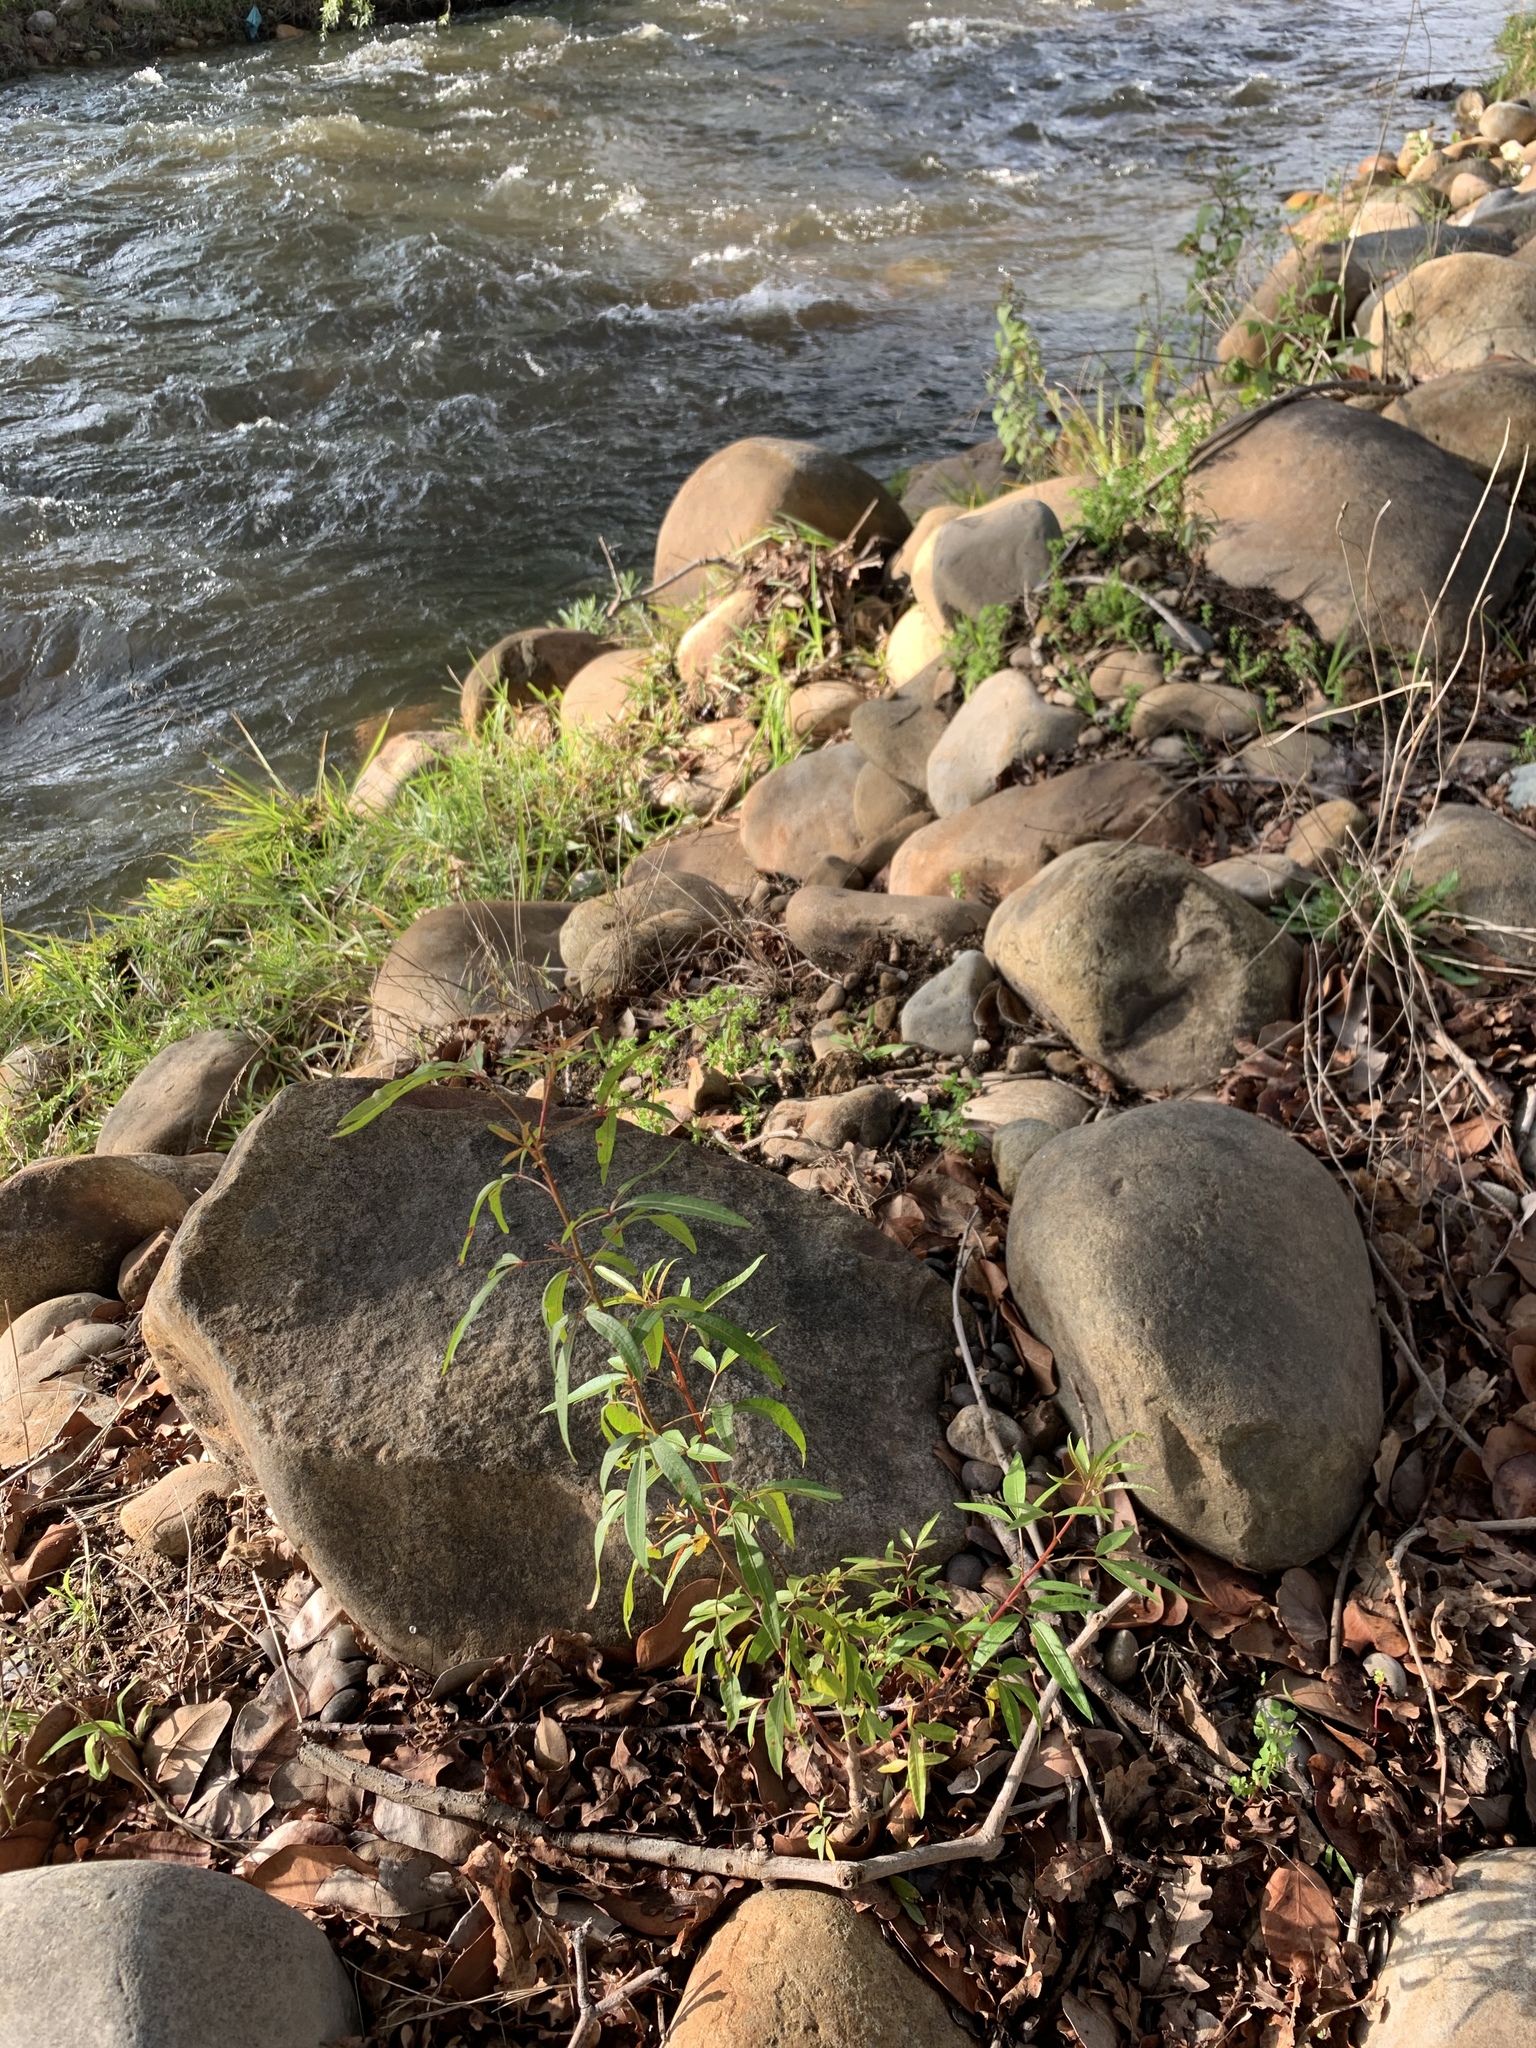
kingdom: Plantae
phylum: Tracheophyta
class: Magnoliopsida
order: Sapindales
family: Anacardiaceae
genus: Searsia
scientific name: Searsia pendulina
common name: White karee
